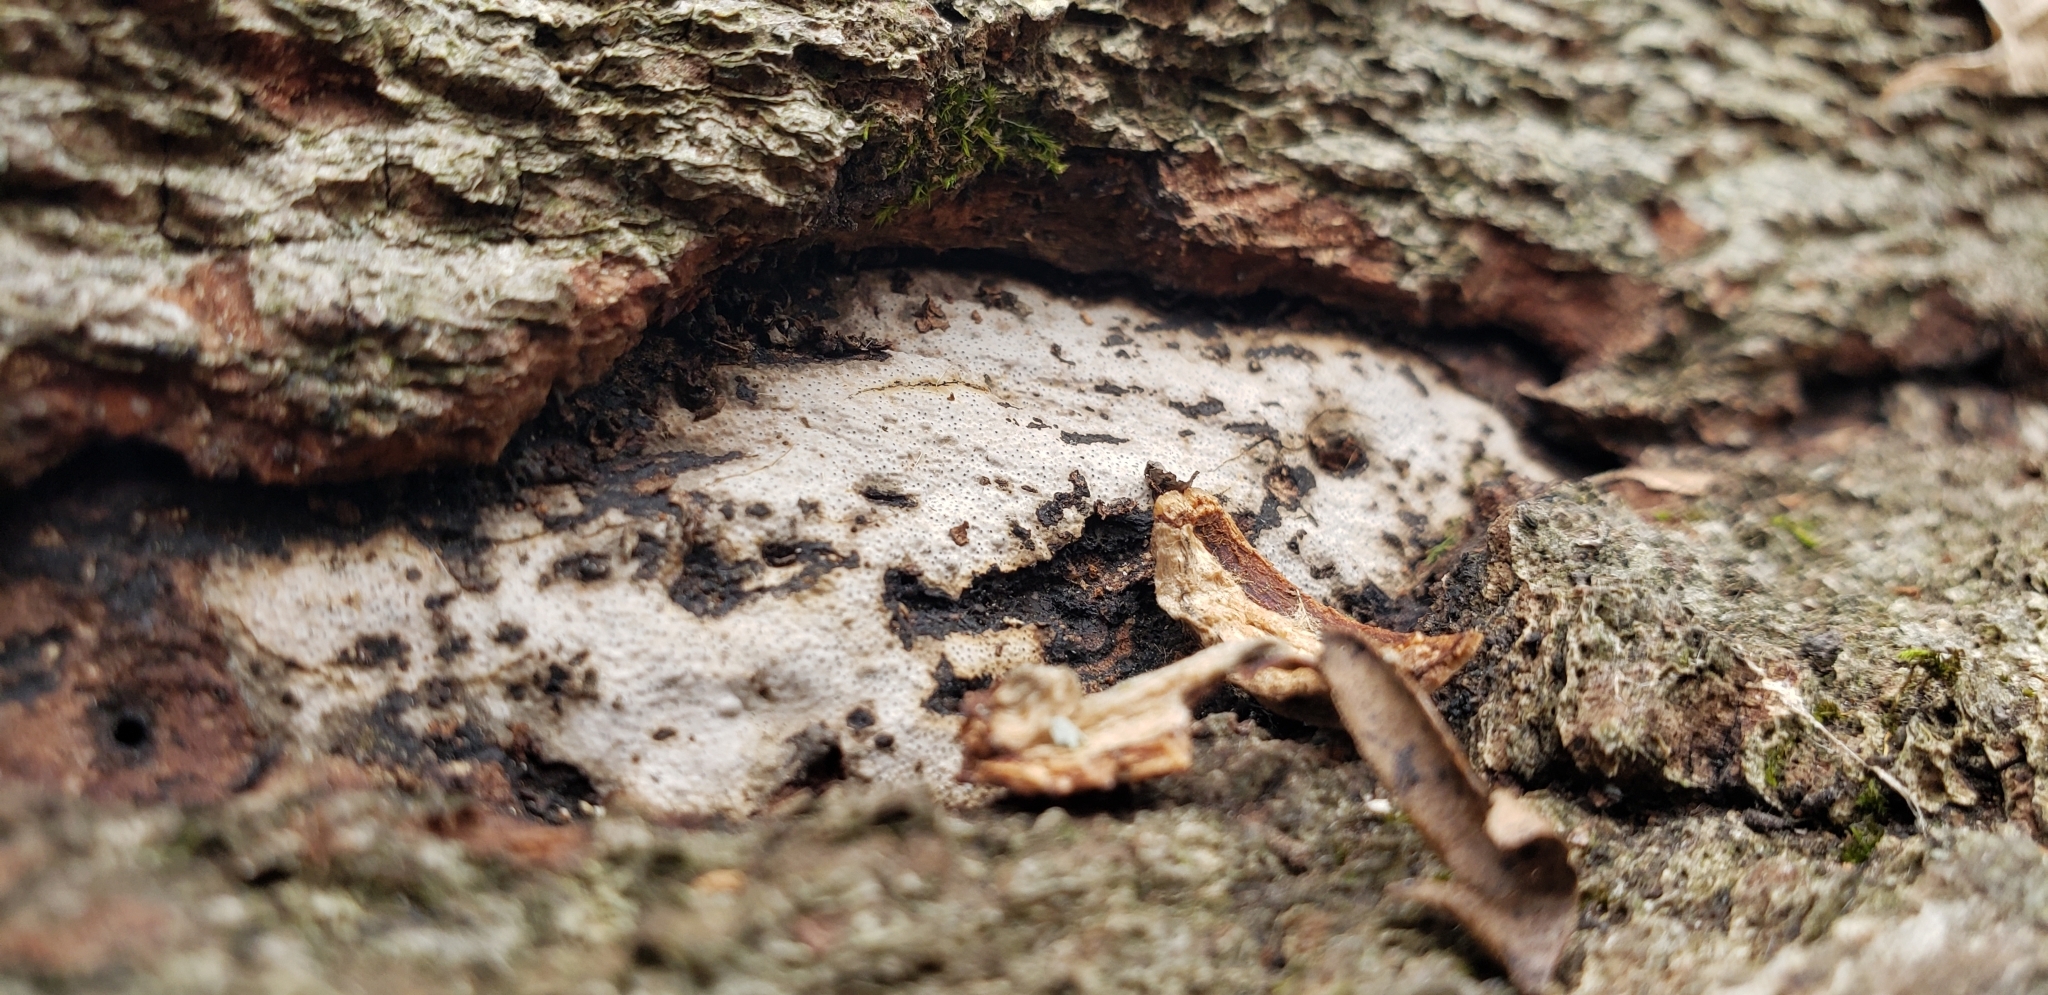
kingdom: Fungi
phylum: Ascomycota
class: Sordariomycetes
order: Xylariales
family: Graphostromataceae
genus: Biscogniauxia
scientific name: Biscogniauxia atropunctata
